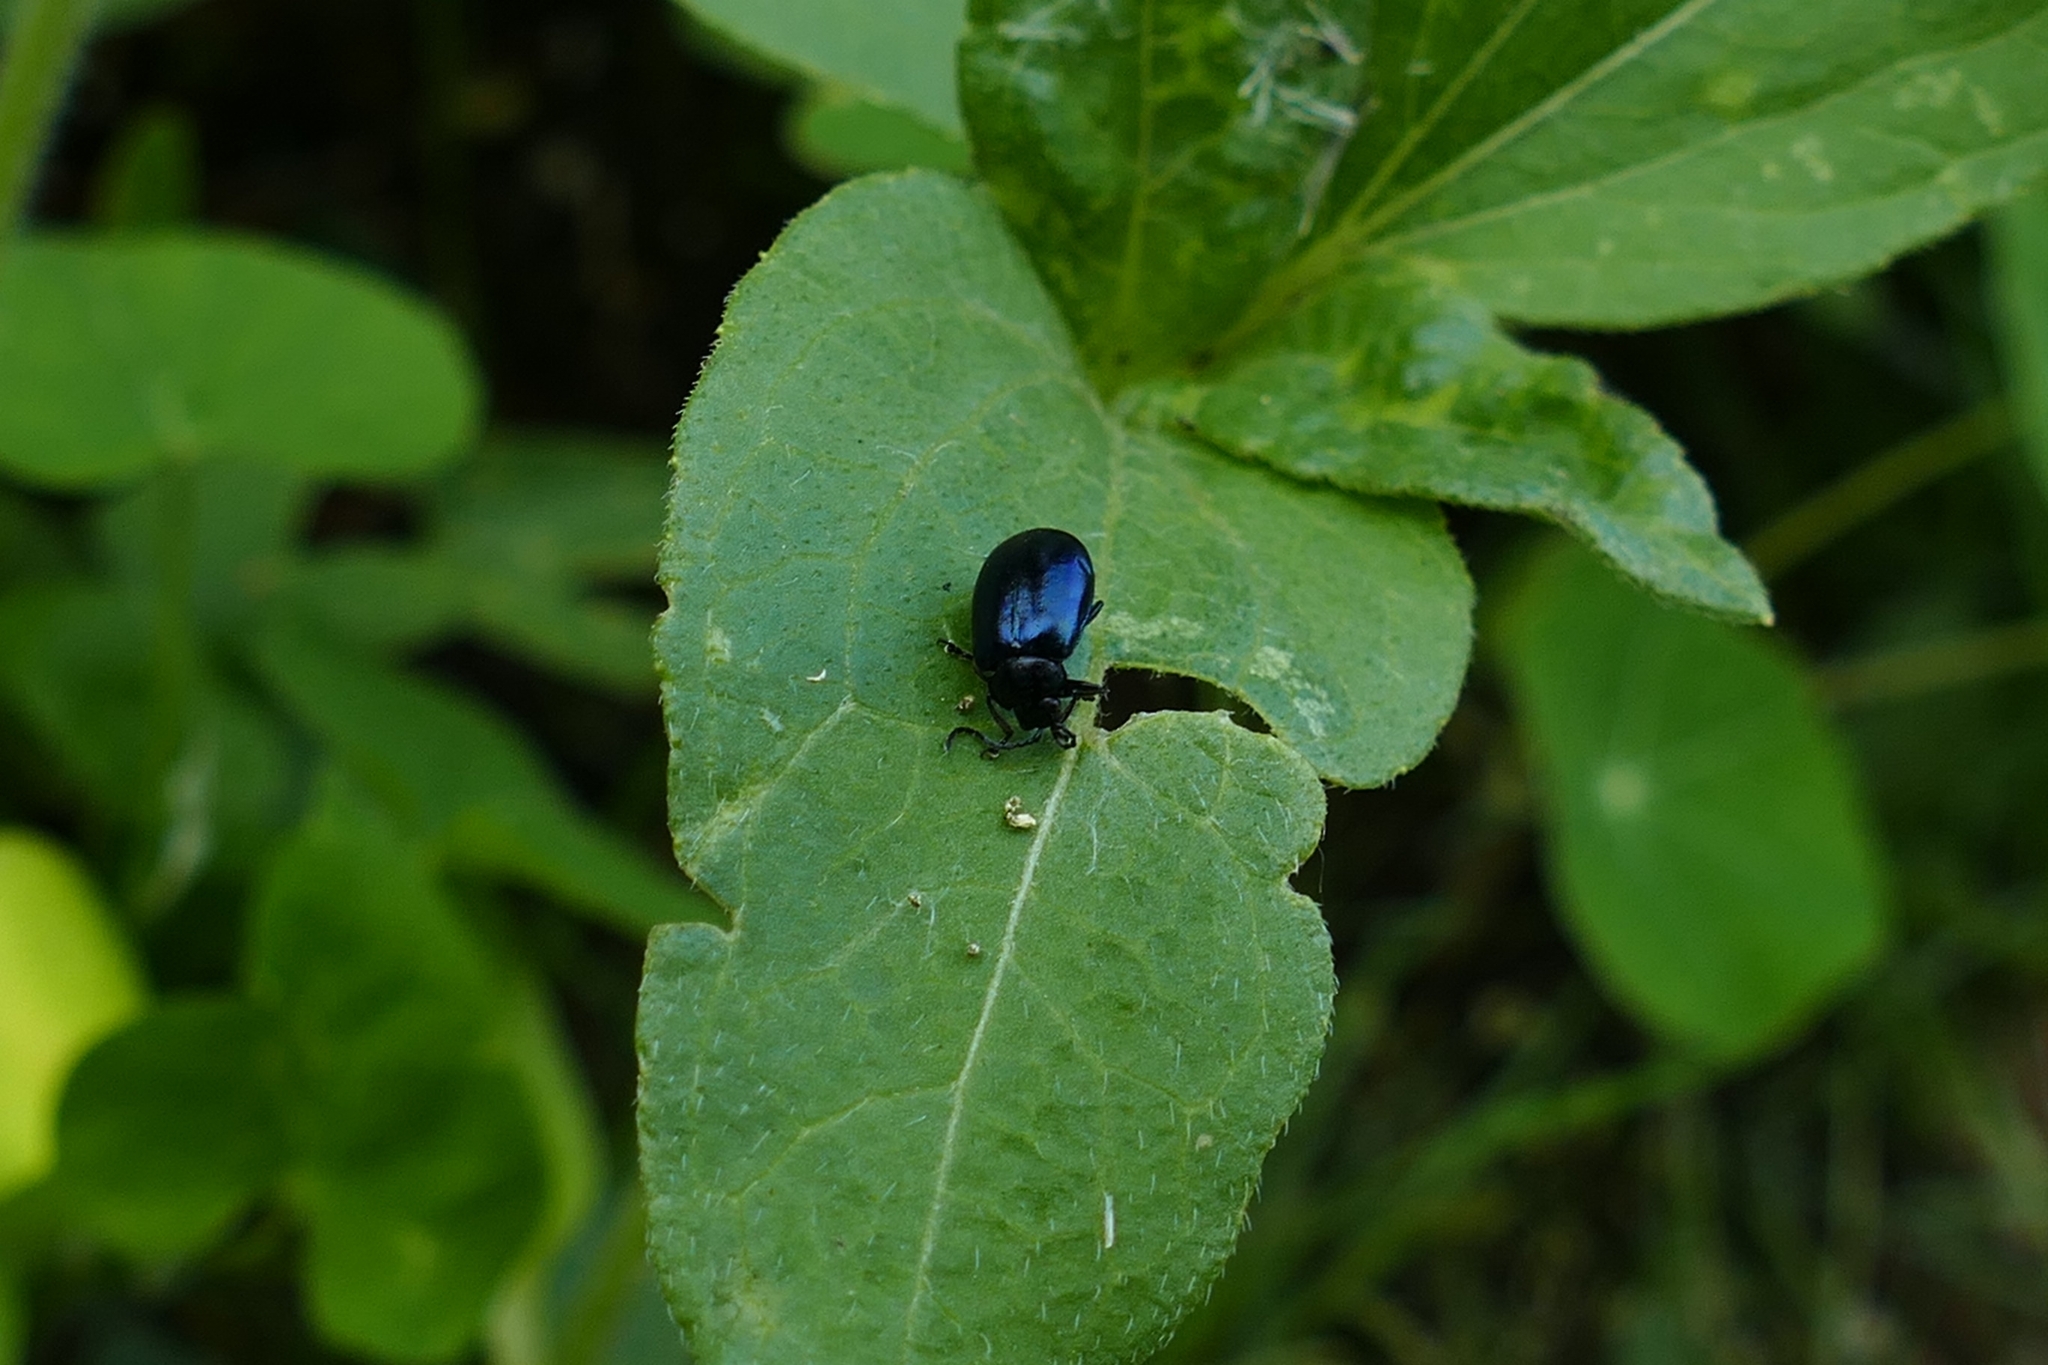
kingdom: Animalia
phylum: Arthropoda
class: Insecta
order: Coleoptera
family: Chrysomelidae
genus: Agelastica
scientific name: Agelastica alni
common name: Alder leaf beetle
